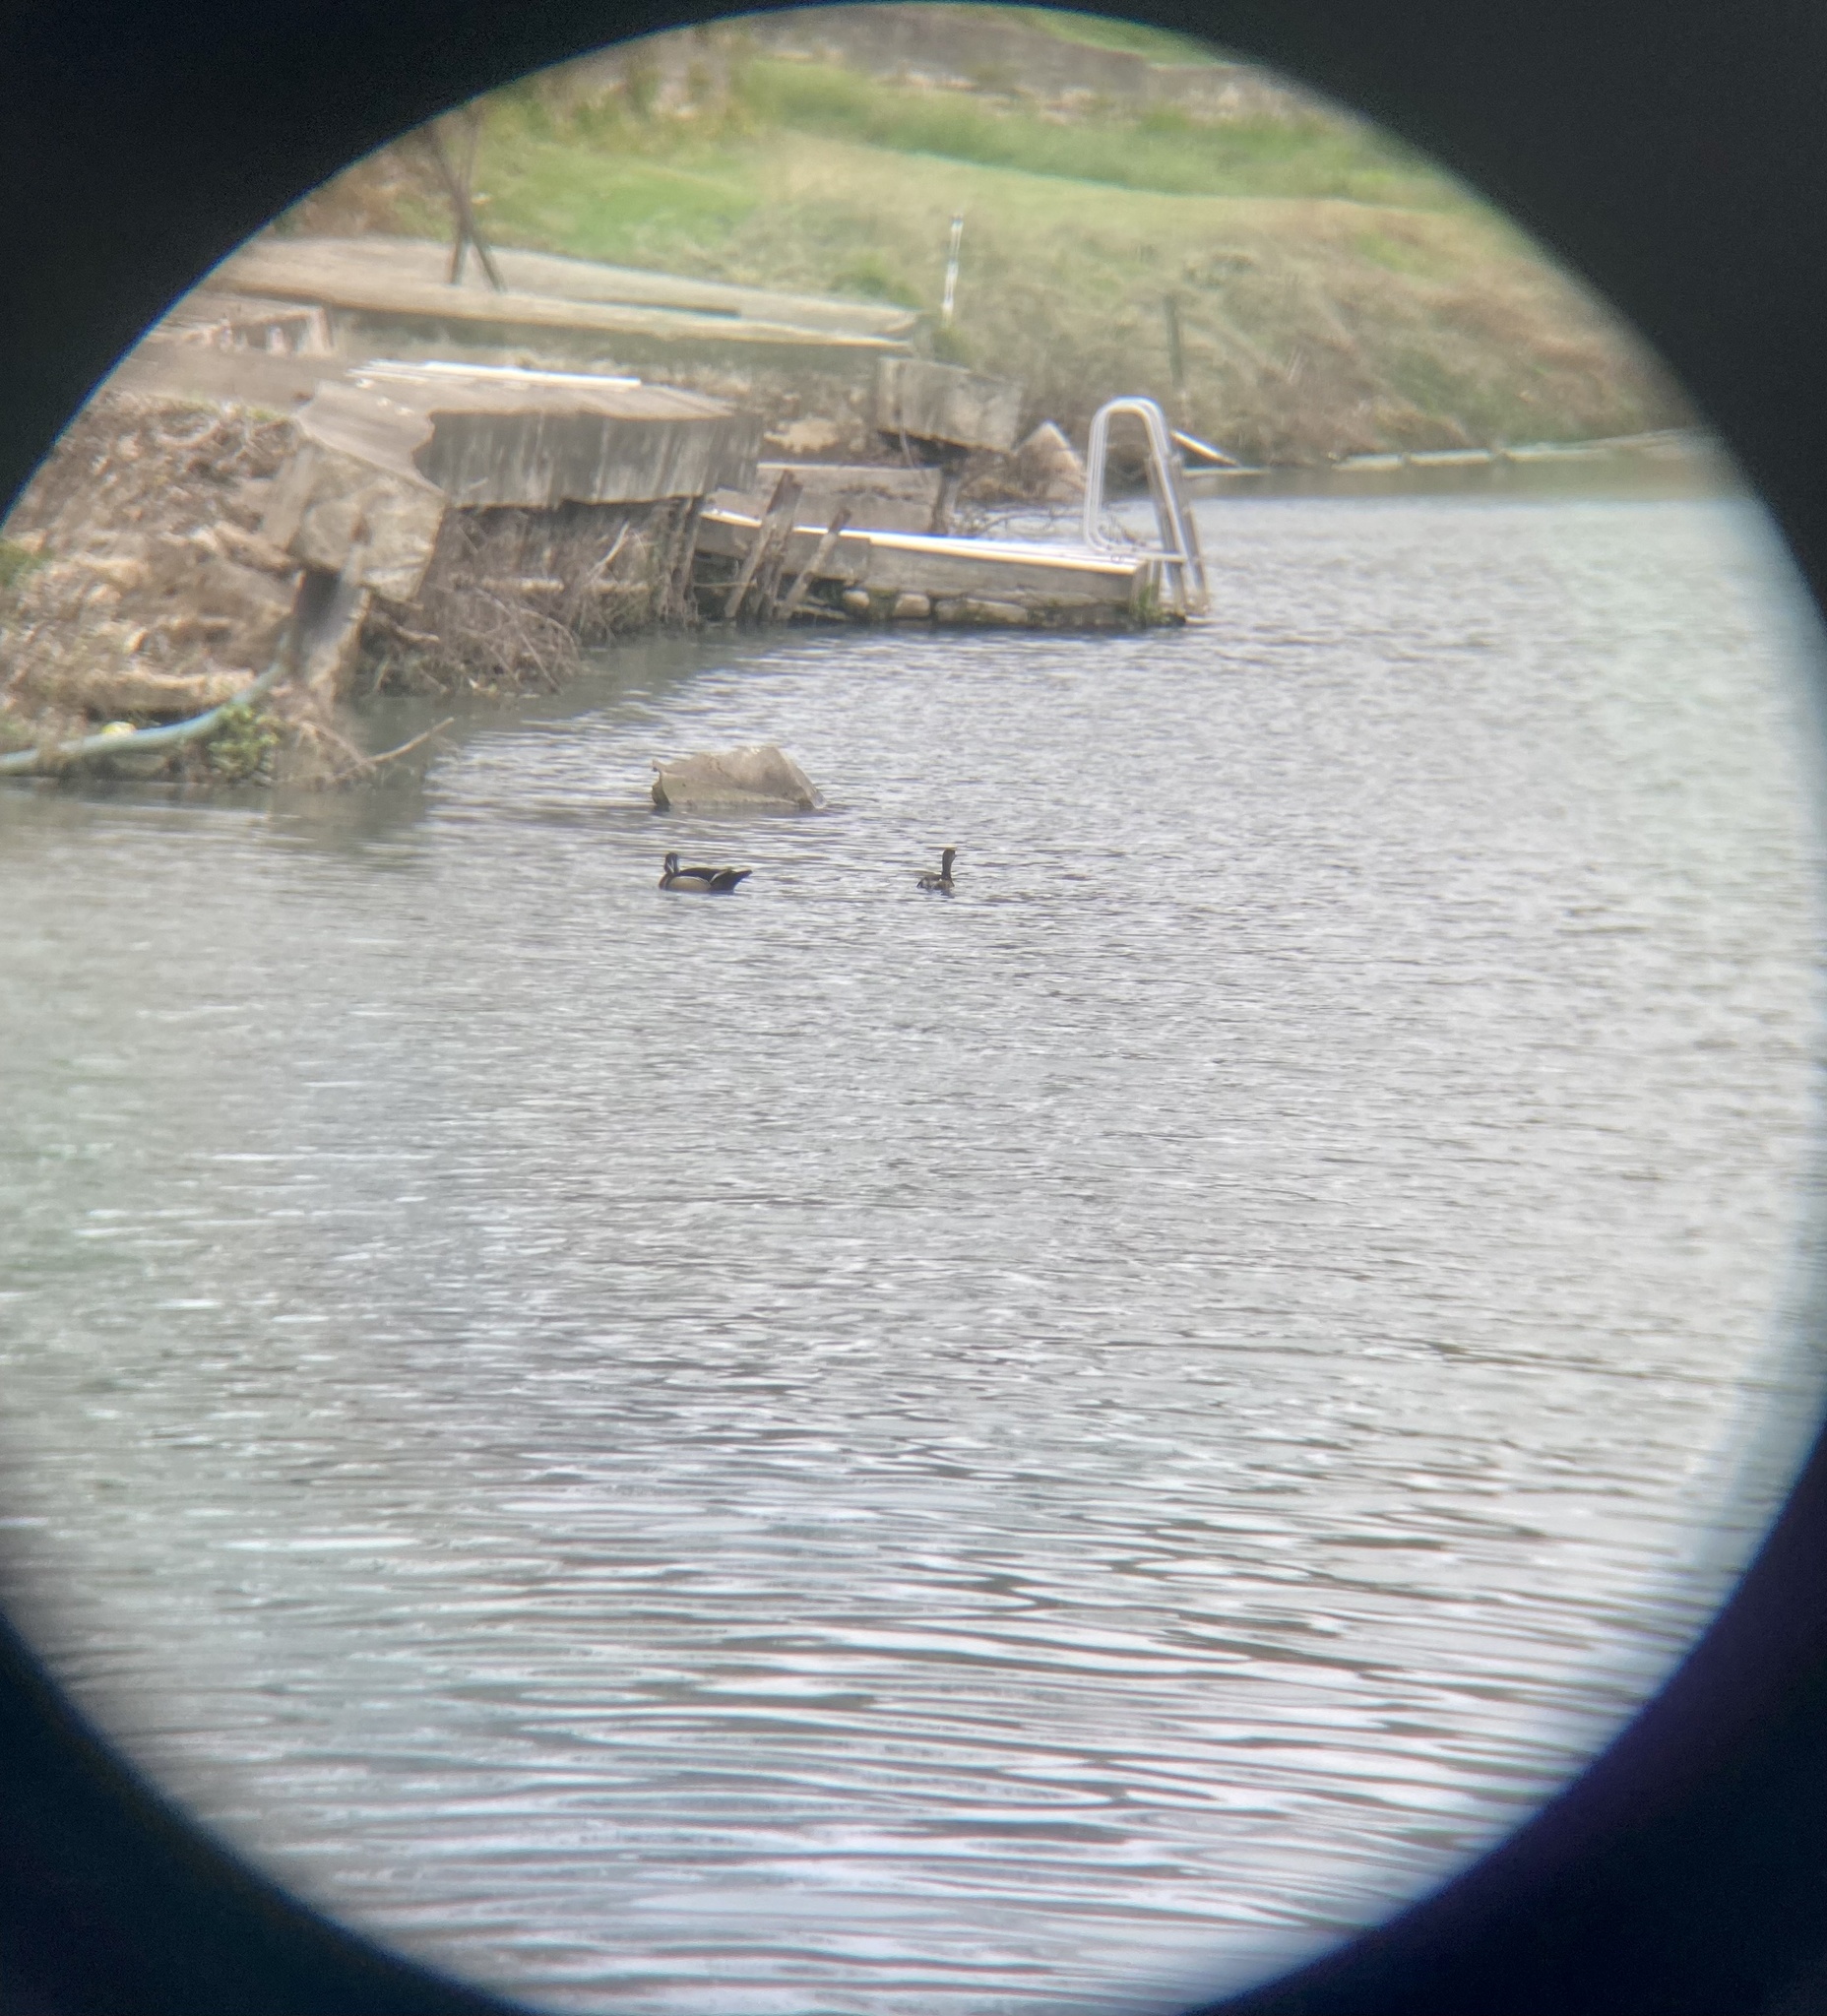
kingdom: Animalia
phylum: Chordata
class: Aves
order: Anseriformes
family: Anatidae
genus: Aix
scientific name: Aix sponsa
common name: Wood duck
